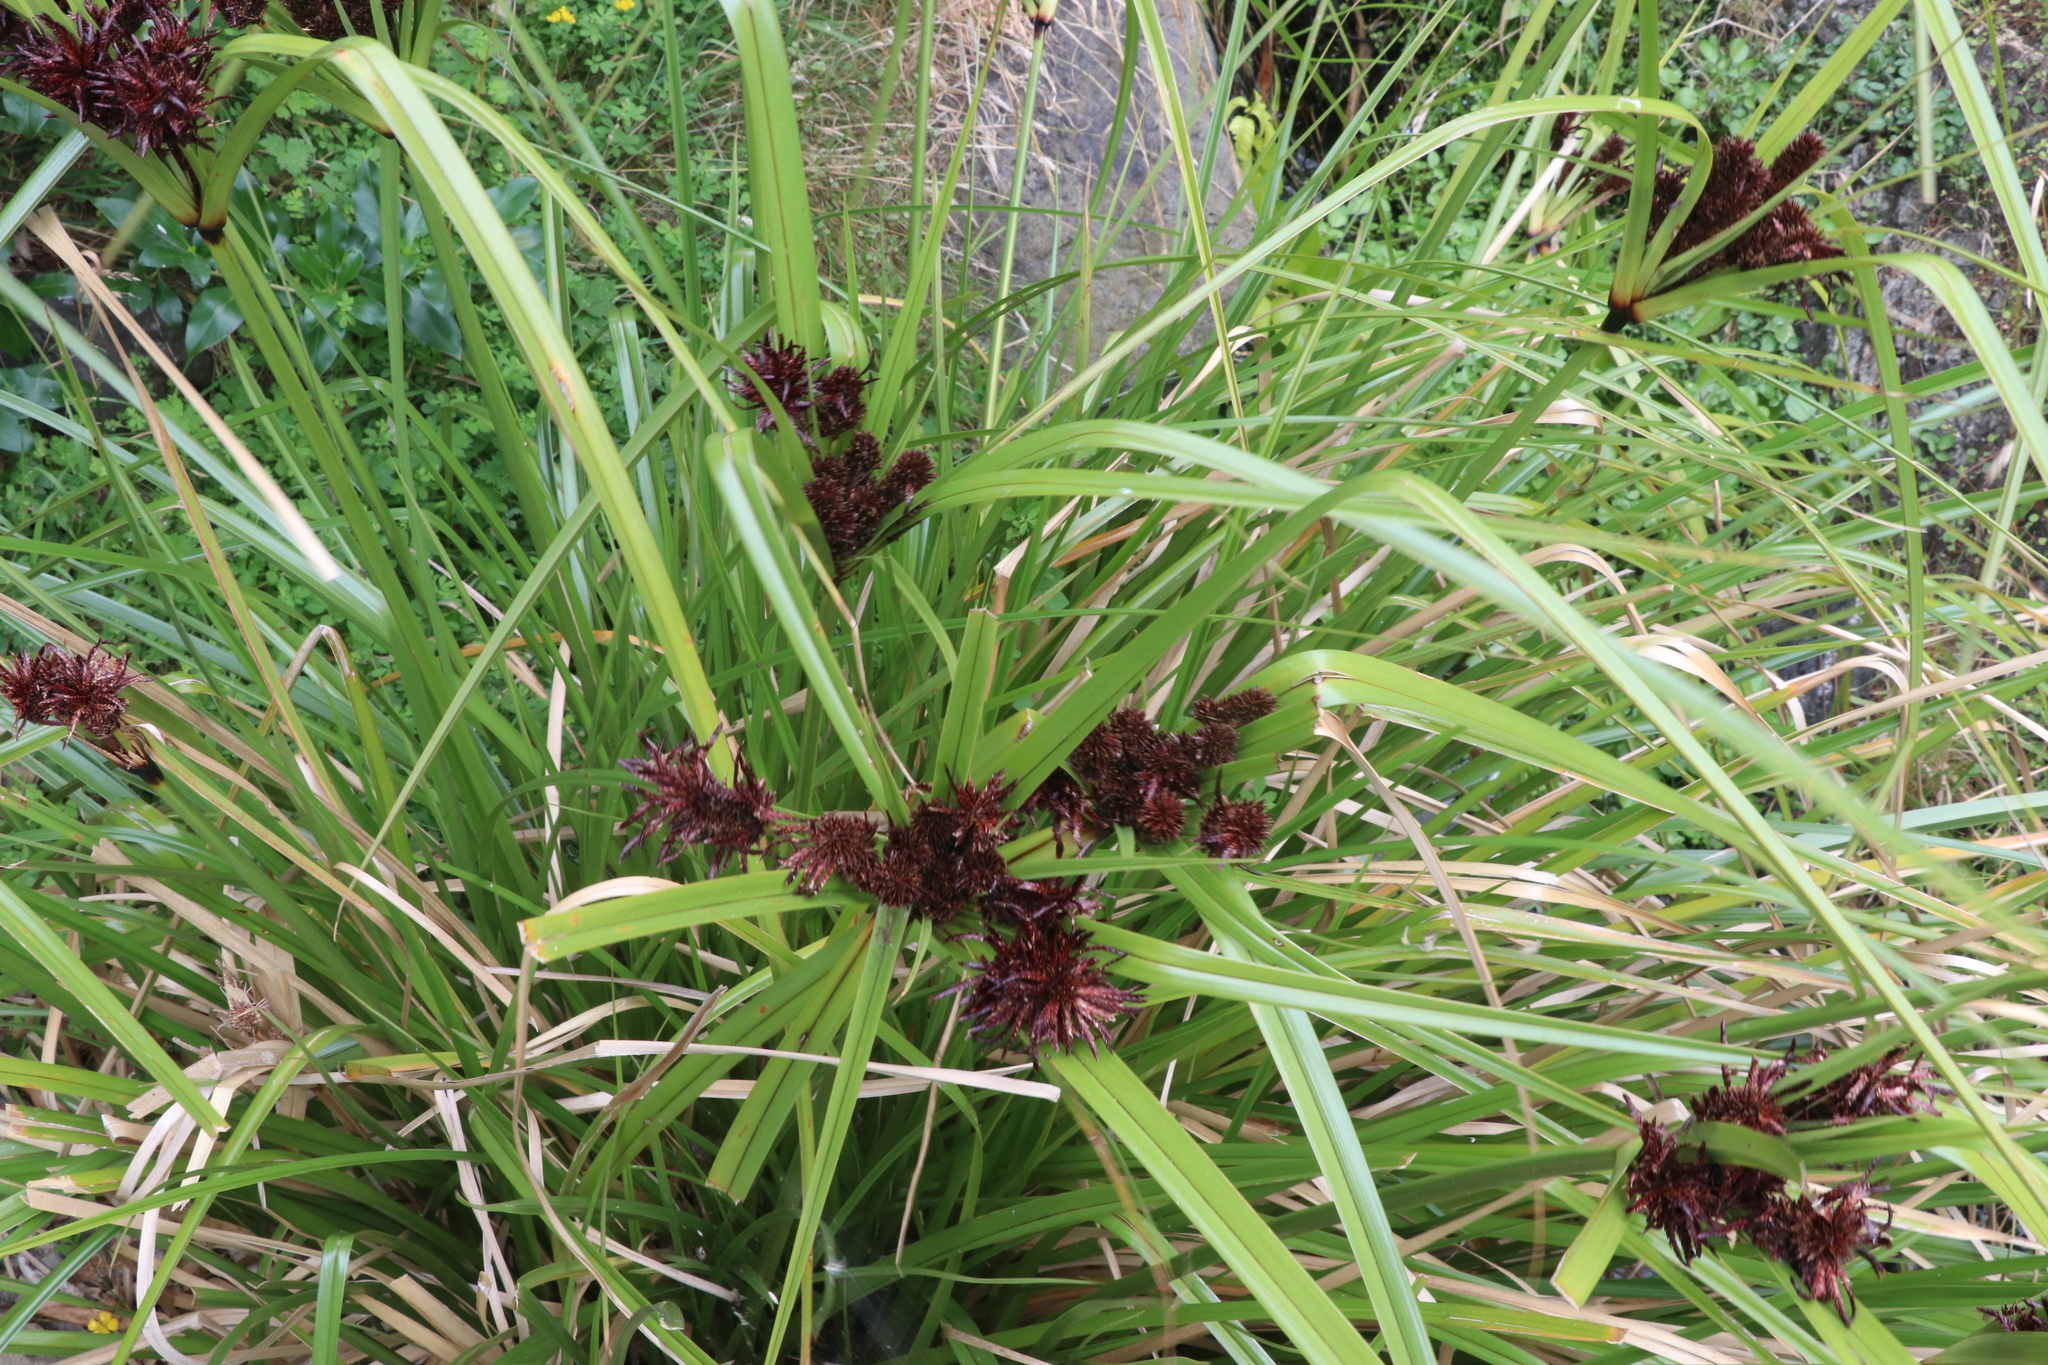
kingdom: Plantae
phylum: Tracheophyta
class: Liliopsida
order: Poales
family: Cyperaceae
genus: Cyperus
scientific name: Cyperus ustulatus
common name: Giant umbrella-sedge
